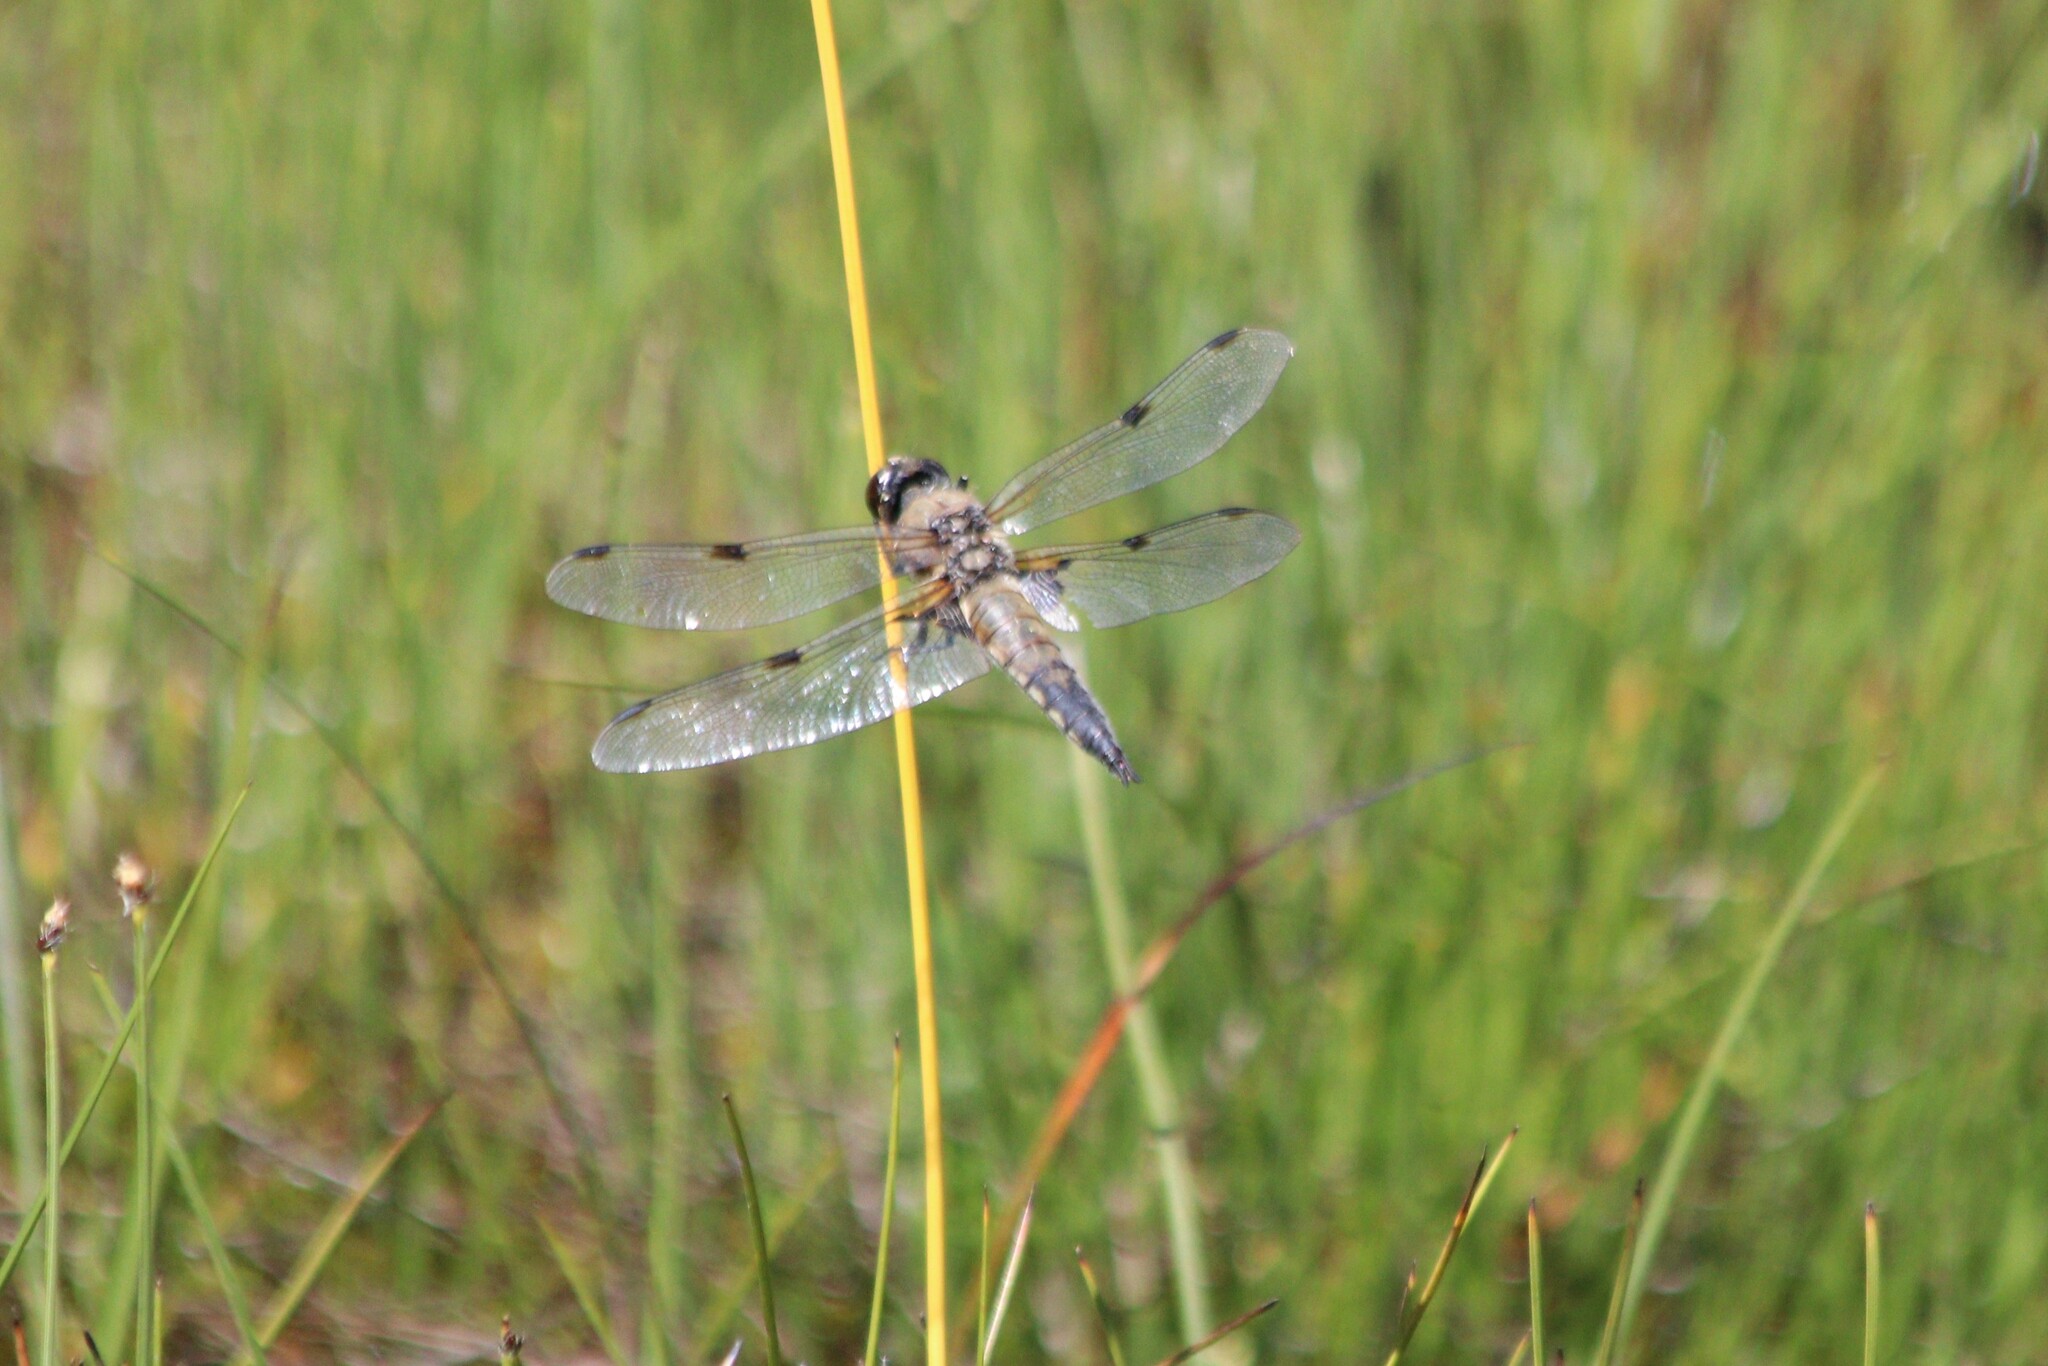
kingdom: Animalia
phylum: Arthropoda
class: Insecta
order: Odonata
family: Libellulidae
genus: Libellula
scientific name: Libellula quadrimaculata
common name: Four-spotted chaser
